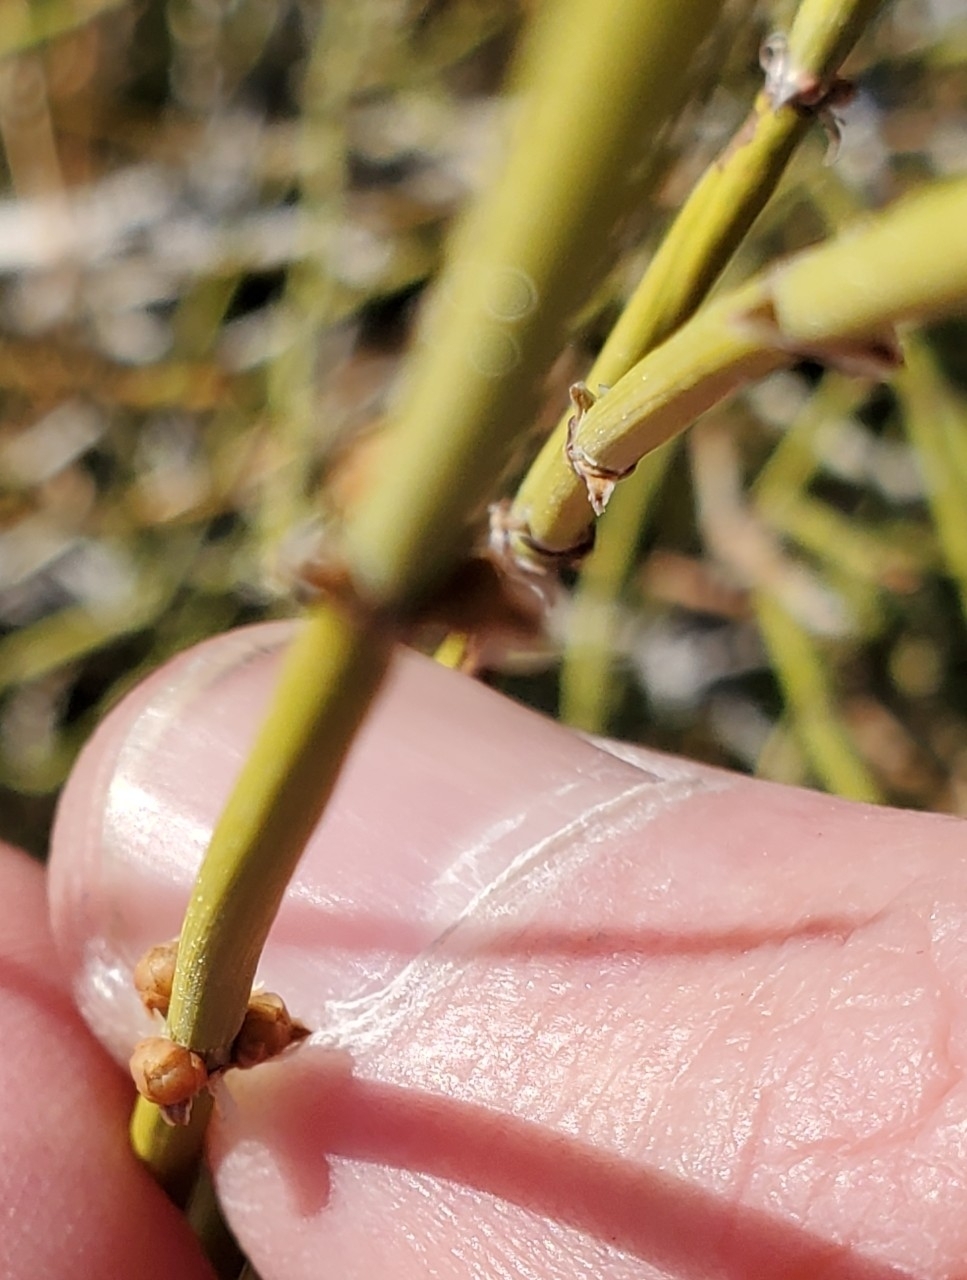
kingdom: Plantae
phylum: Tracheophyta
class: Gnetopsida
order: Ephedrales
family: Ephedraceae
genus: Ephedra
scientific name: Ephedra californica
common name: California ephedra
